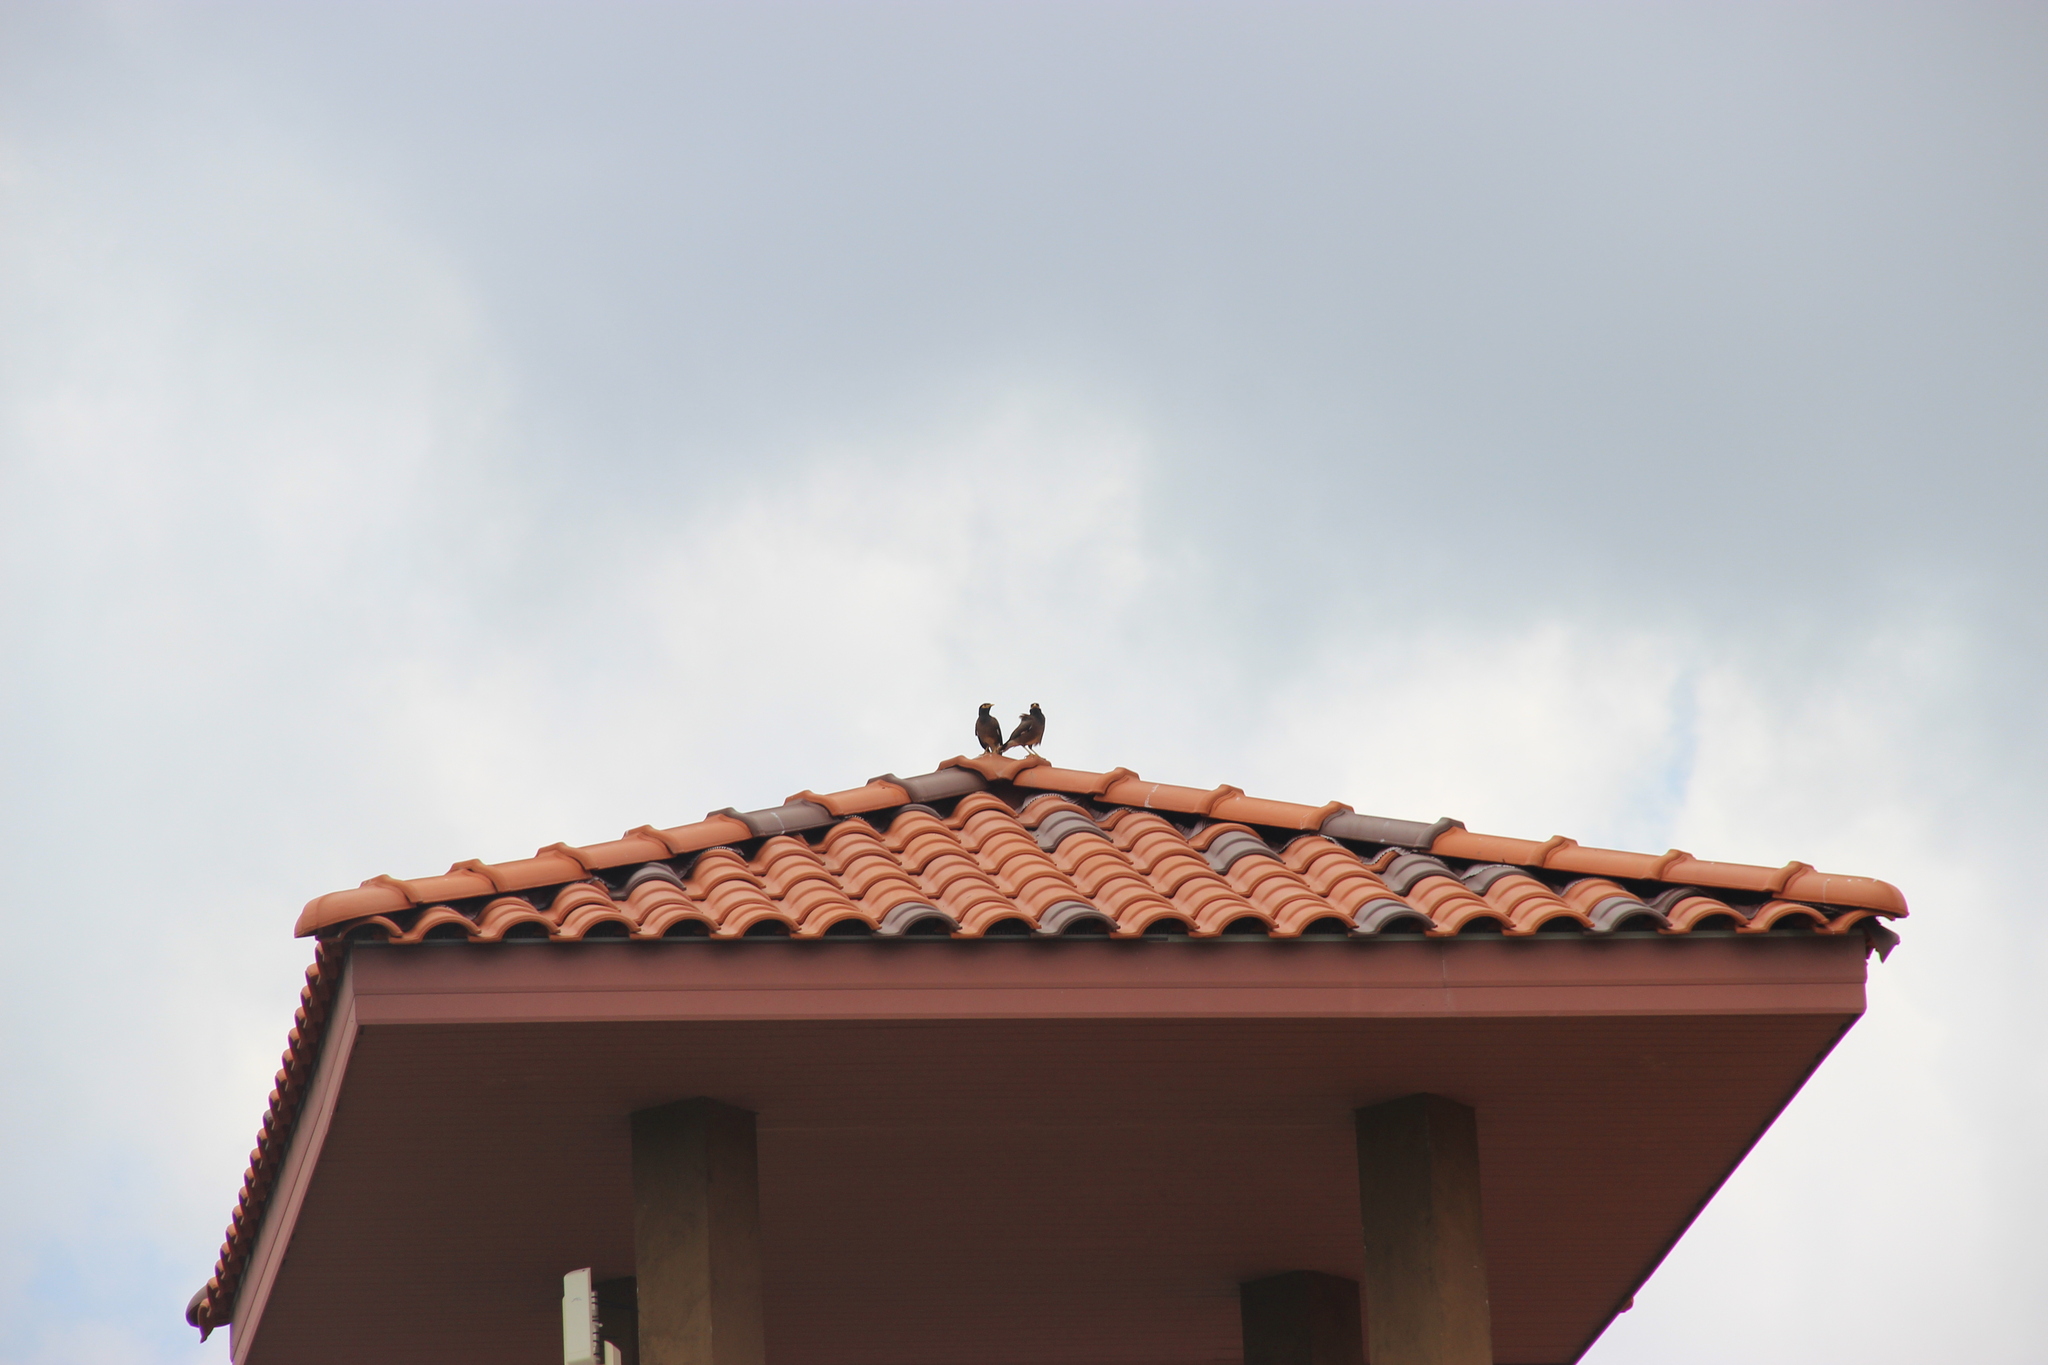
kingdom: Animalia
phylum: Chordata
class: Aves
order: Passeriformes
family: Sturnidae
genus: Acridotheres
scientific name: Acridotheres tristis
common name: Common myna
